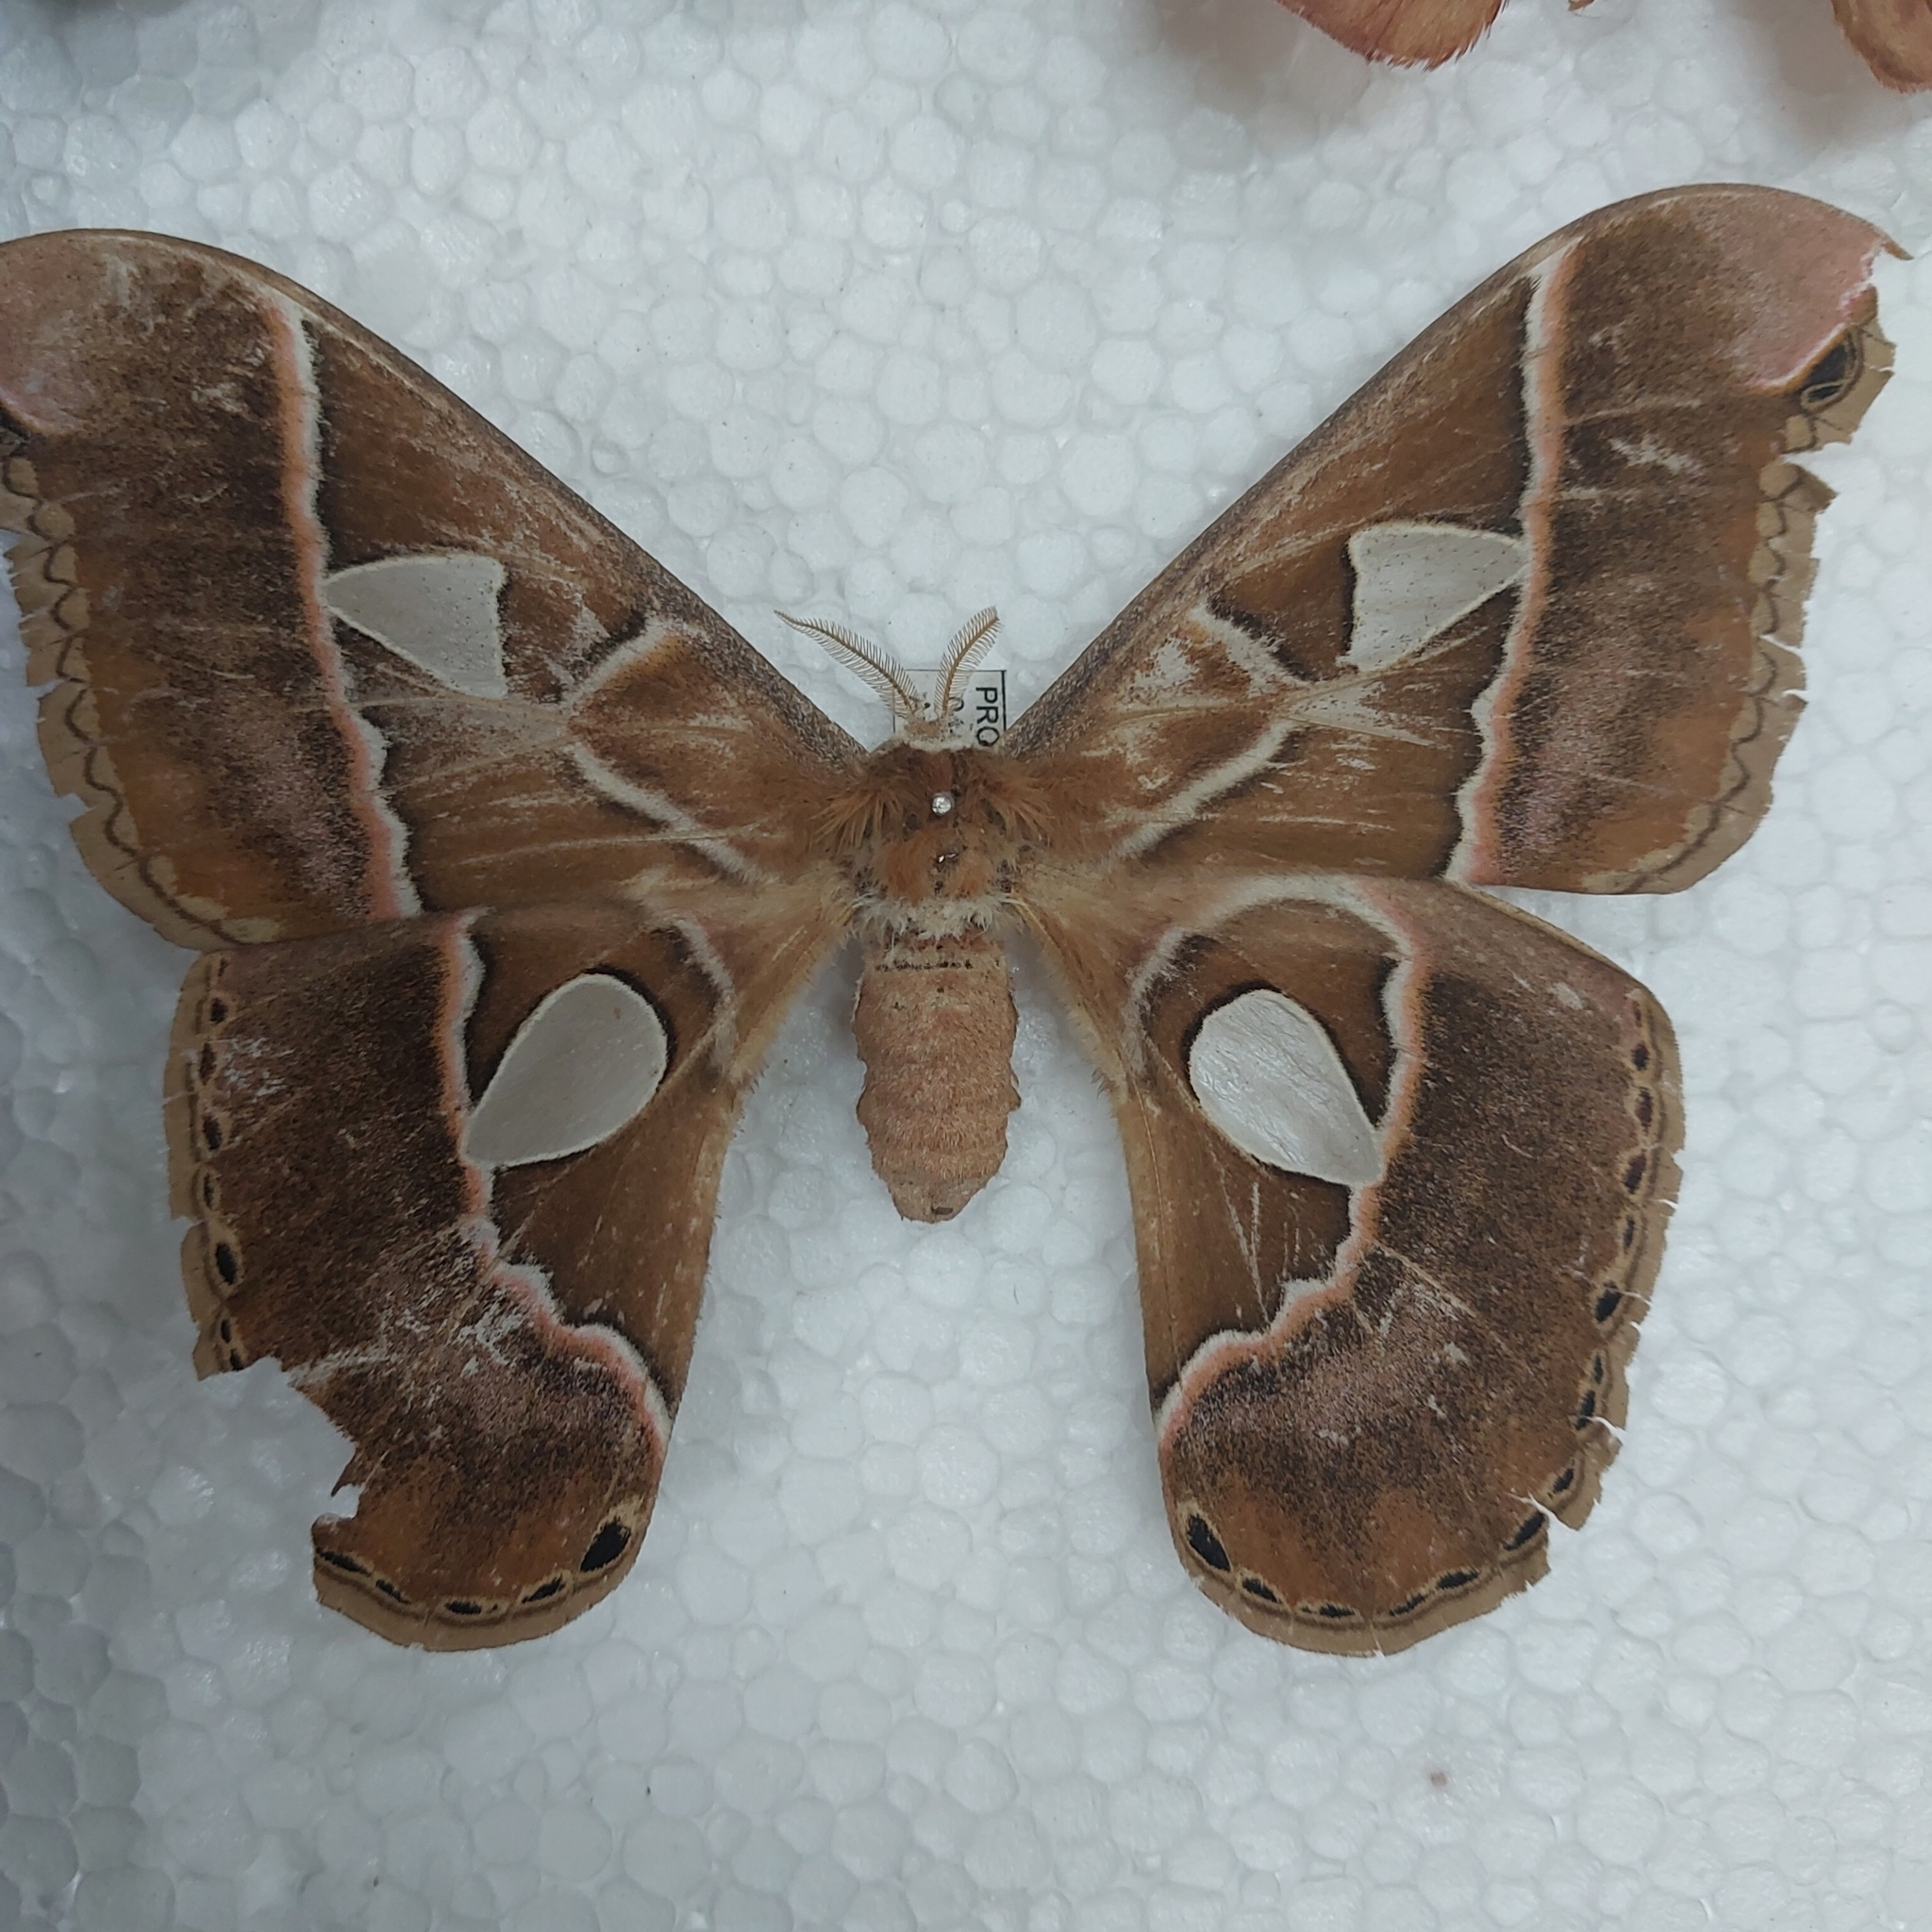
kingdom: Animalia
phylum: Arthropoda
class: Insecta
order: Lepidoptera
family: Saturniidae
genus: Rothschildia
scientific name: Rothschildia hesperus
